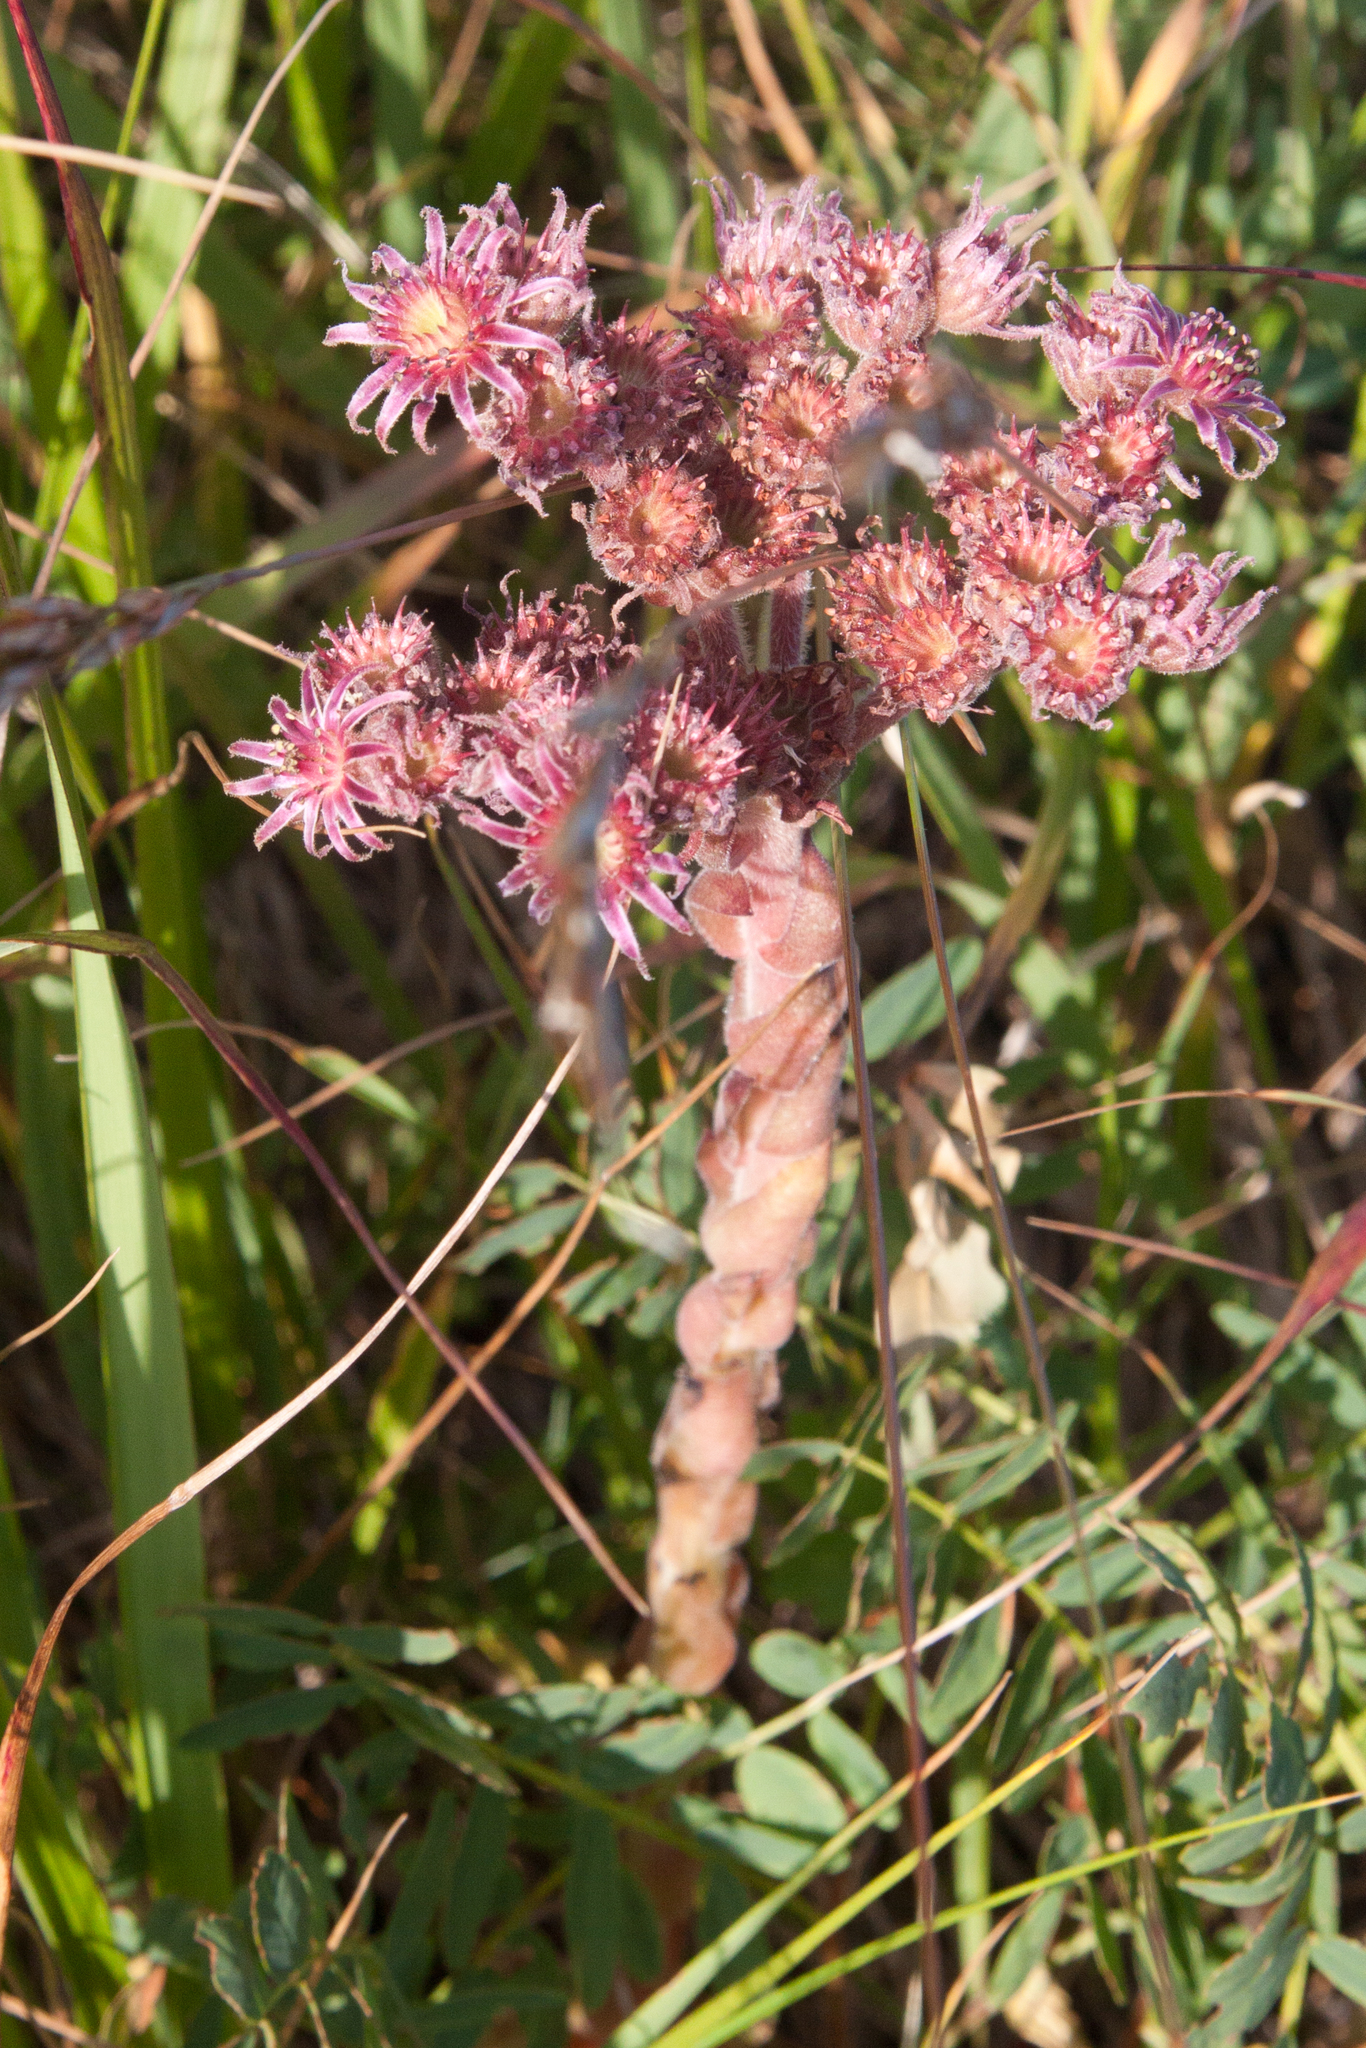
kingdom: Plantae
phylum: Tracheophyta
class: Magnoliopsida
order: Saxifragales
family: Crassulaceae
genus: Sempervivum
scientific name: Sempervivum caucasicum
